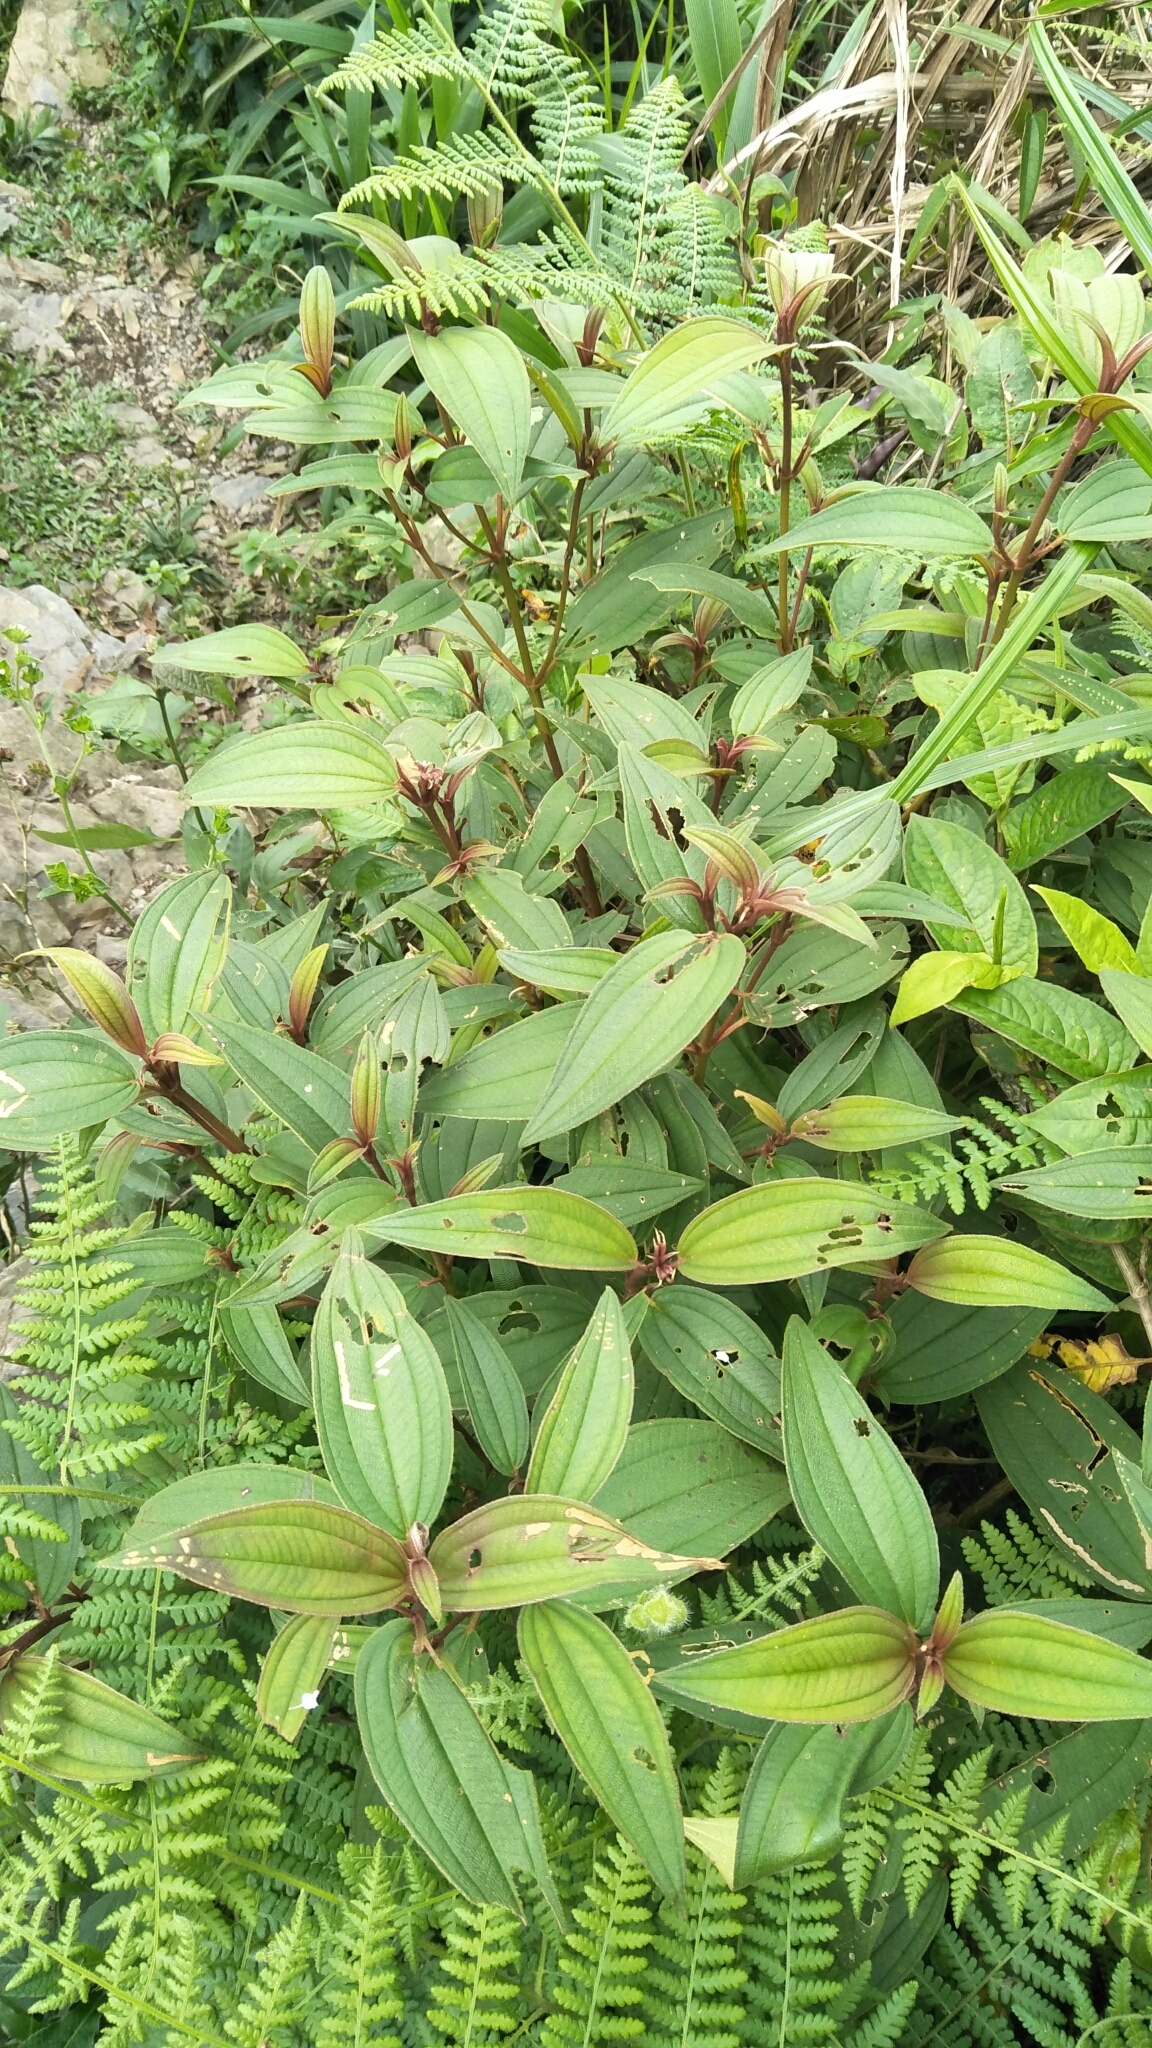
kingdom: Plantae
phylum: Tracheophyta
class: Magnoliopsida
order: Myrtales
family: Melastomataceae
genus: Melastoma
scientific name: Melastoma malabathricum
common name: Indian-rhododendron
